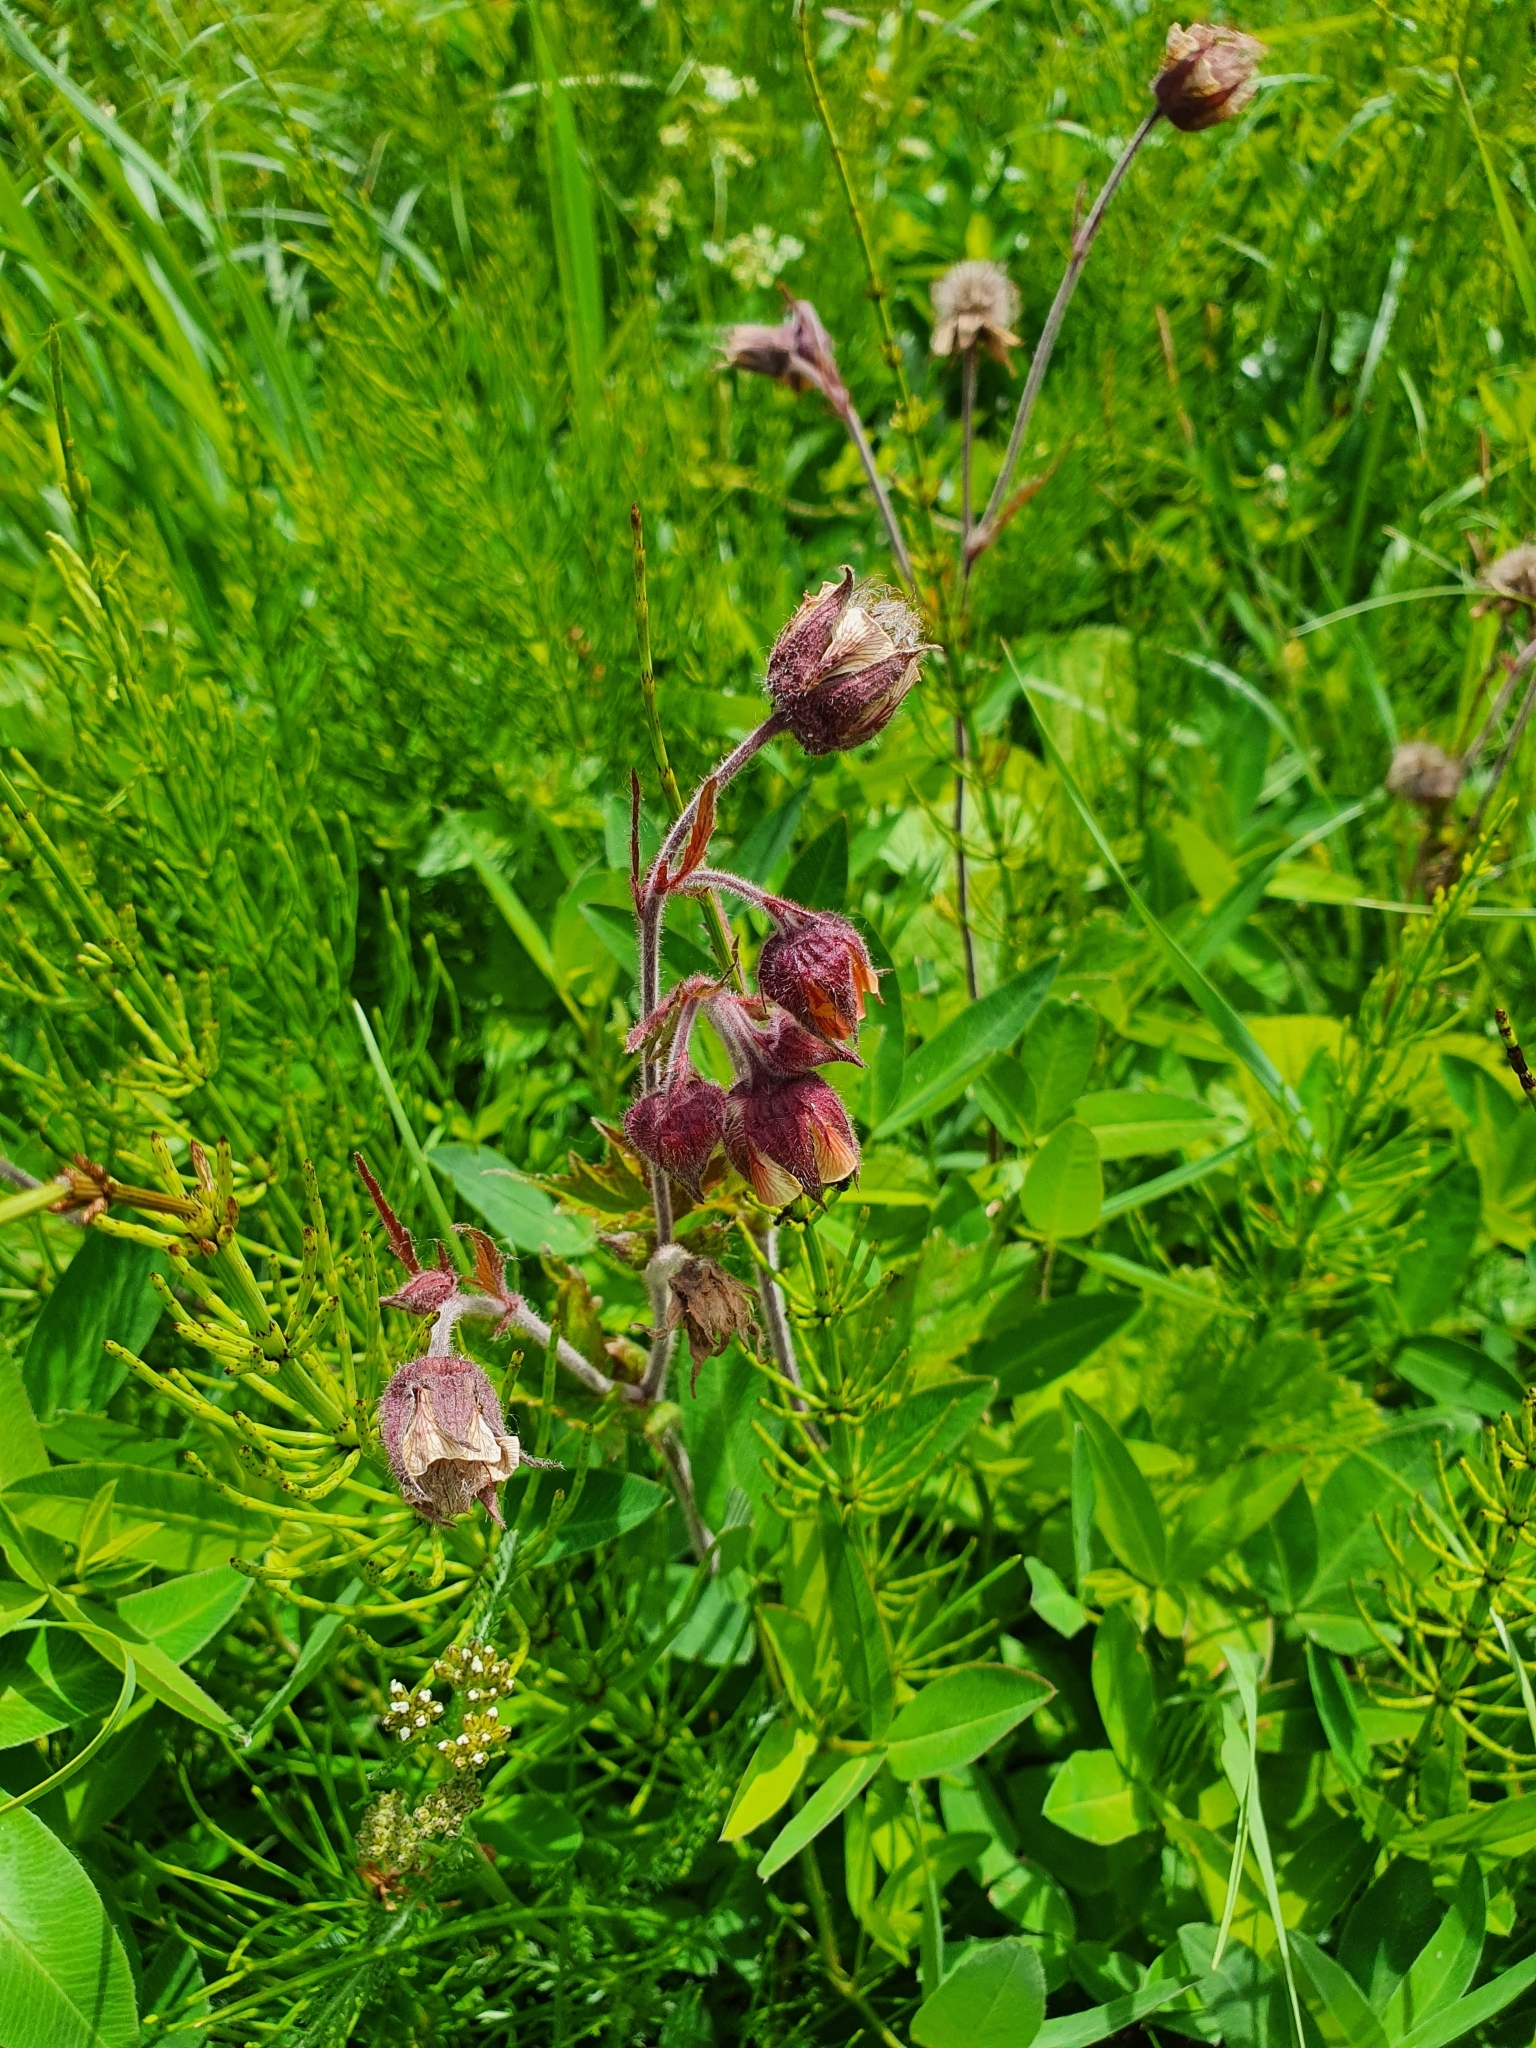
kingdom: Plantae
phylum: Tracheophyta
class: Magnoliopsida
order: Rosales
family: Rosaceae
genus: Geum
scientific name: Geum rivale
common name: Water avens
